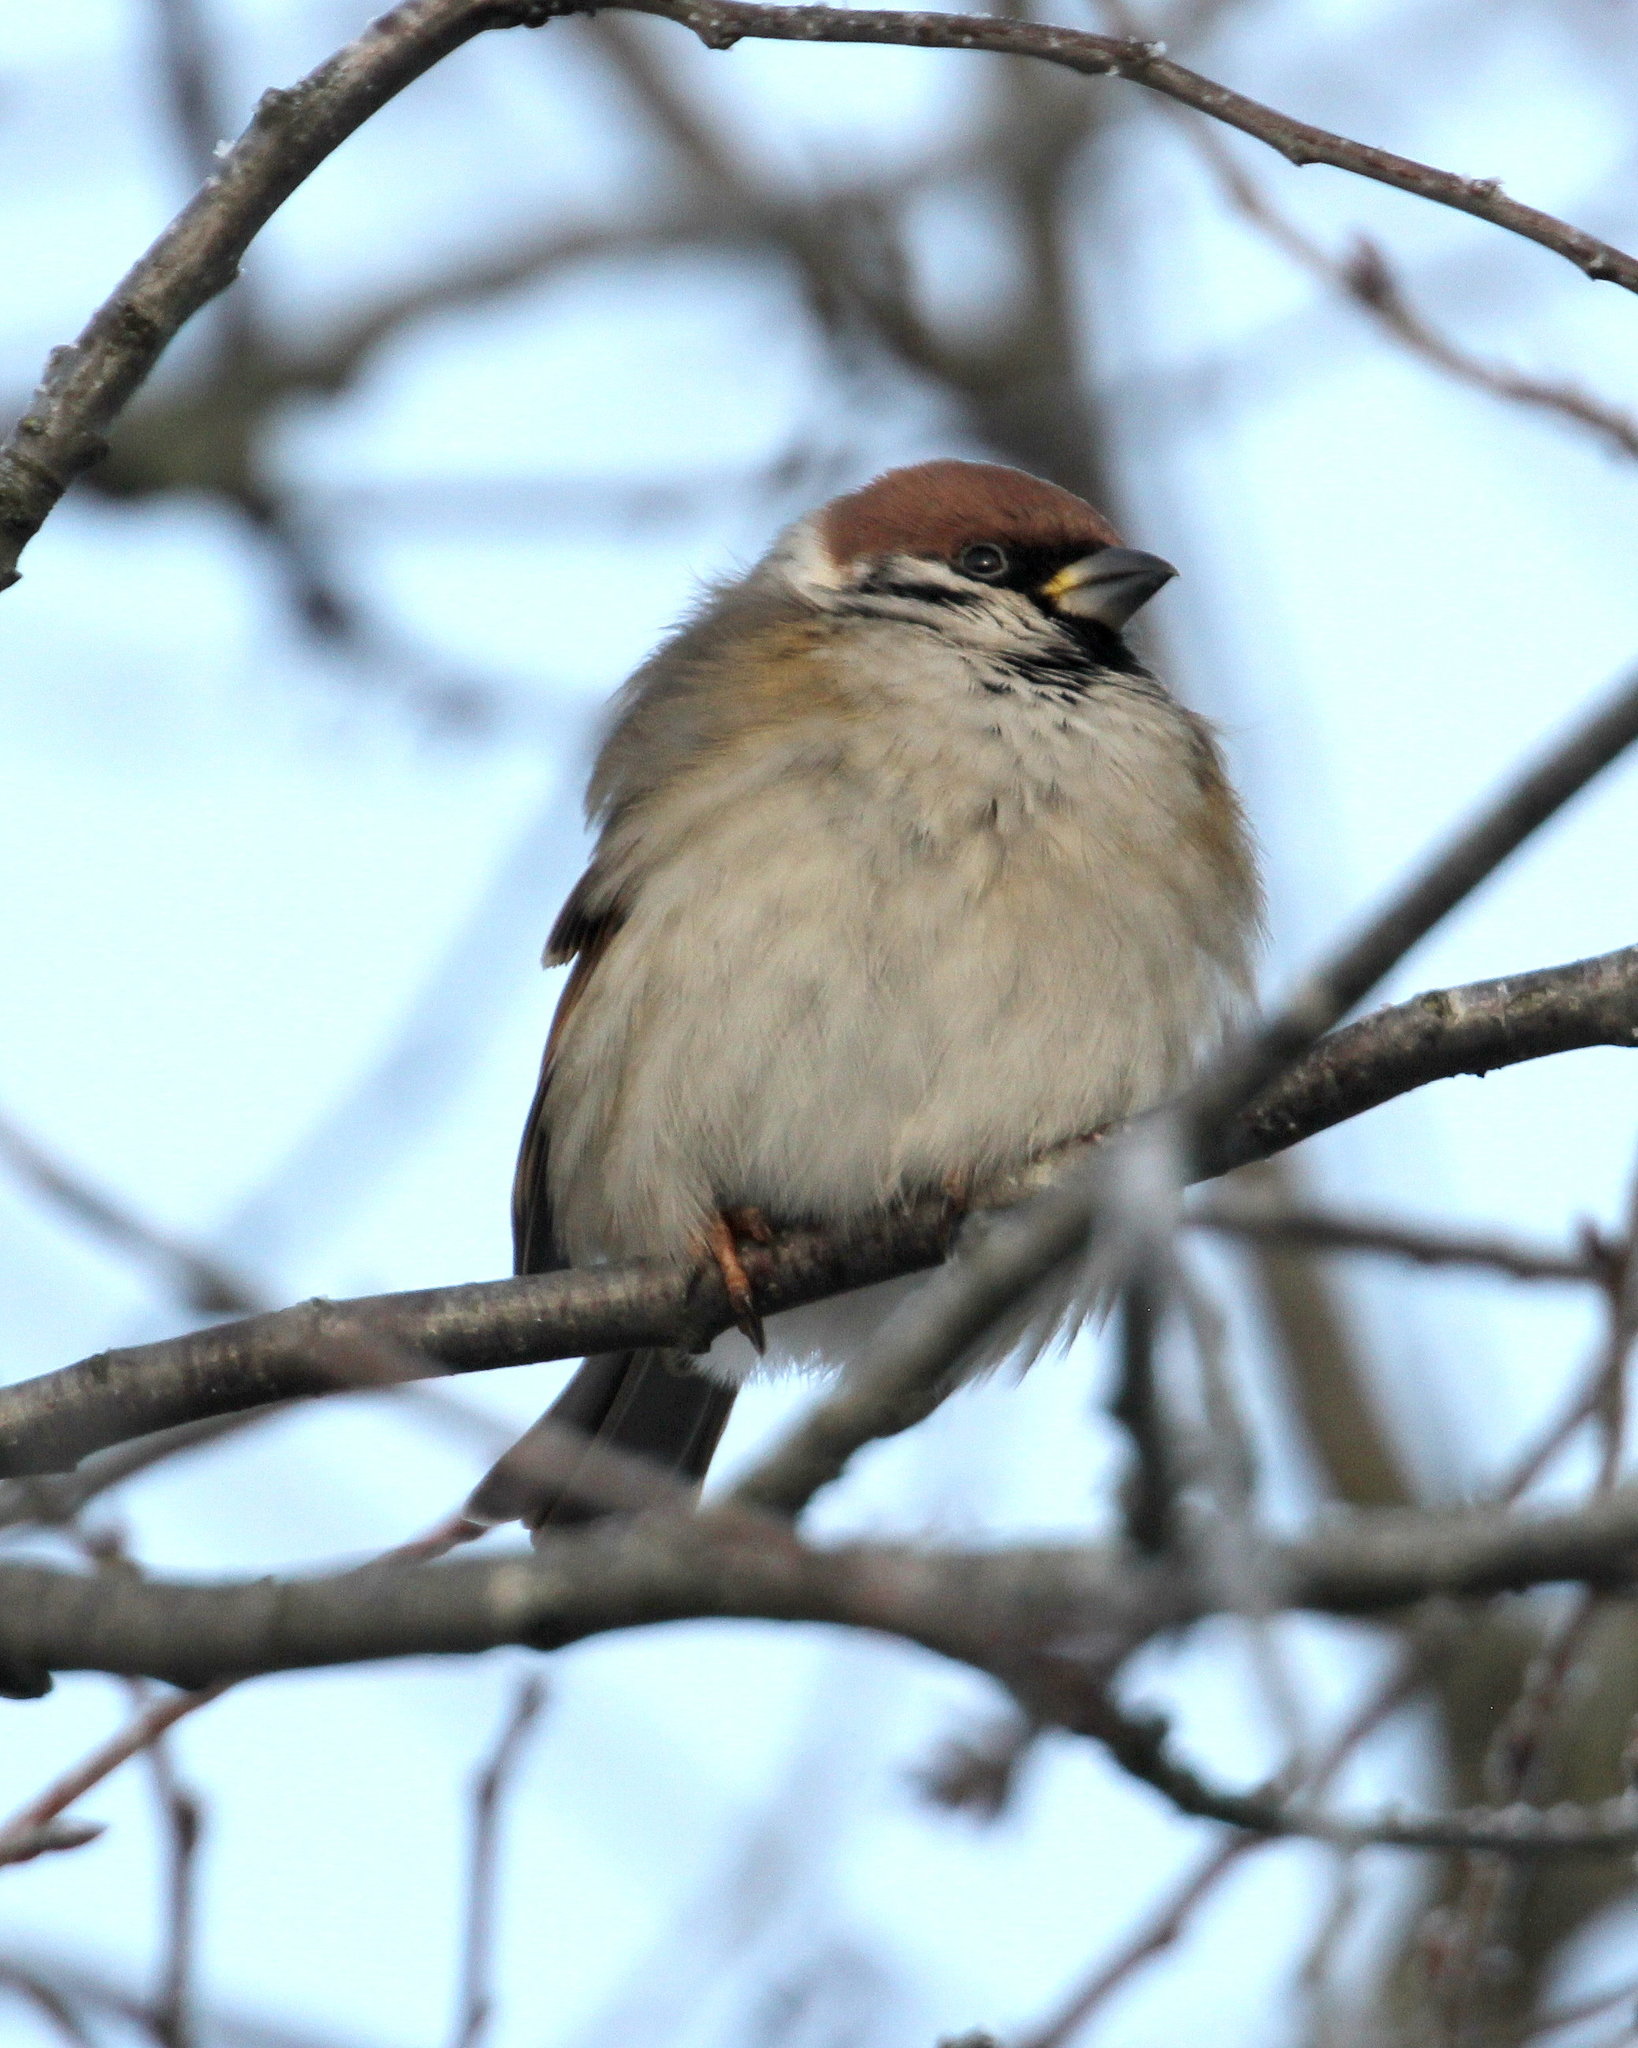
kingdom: Animalia
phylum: Chordata
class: Aves
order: Passeriformes
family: Passeridae
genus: Passer
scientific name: Passer montanus
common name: Eurasian tree sparrow
